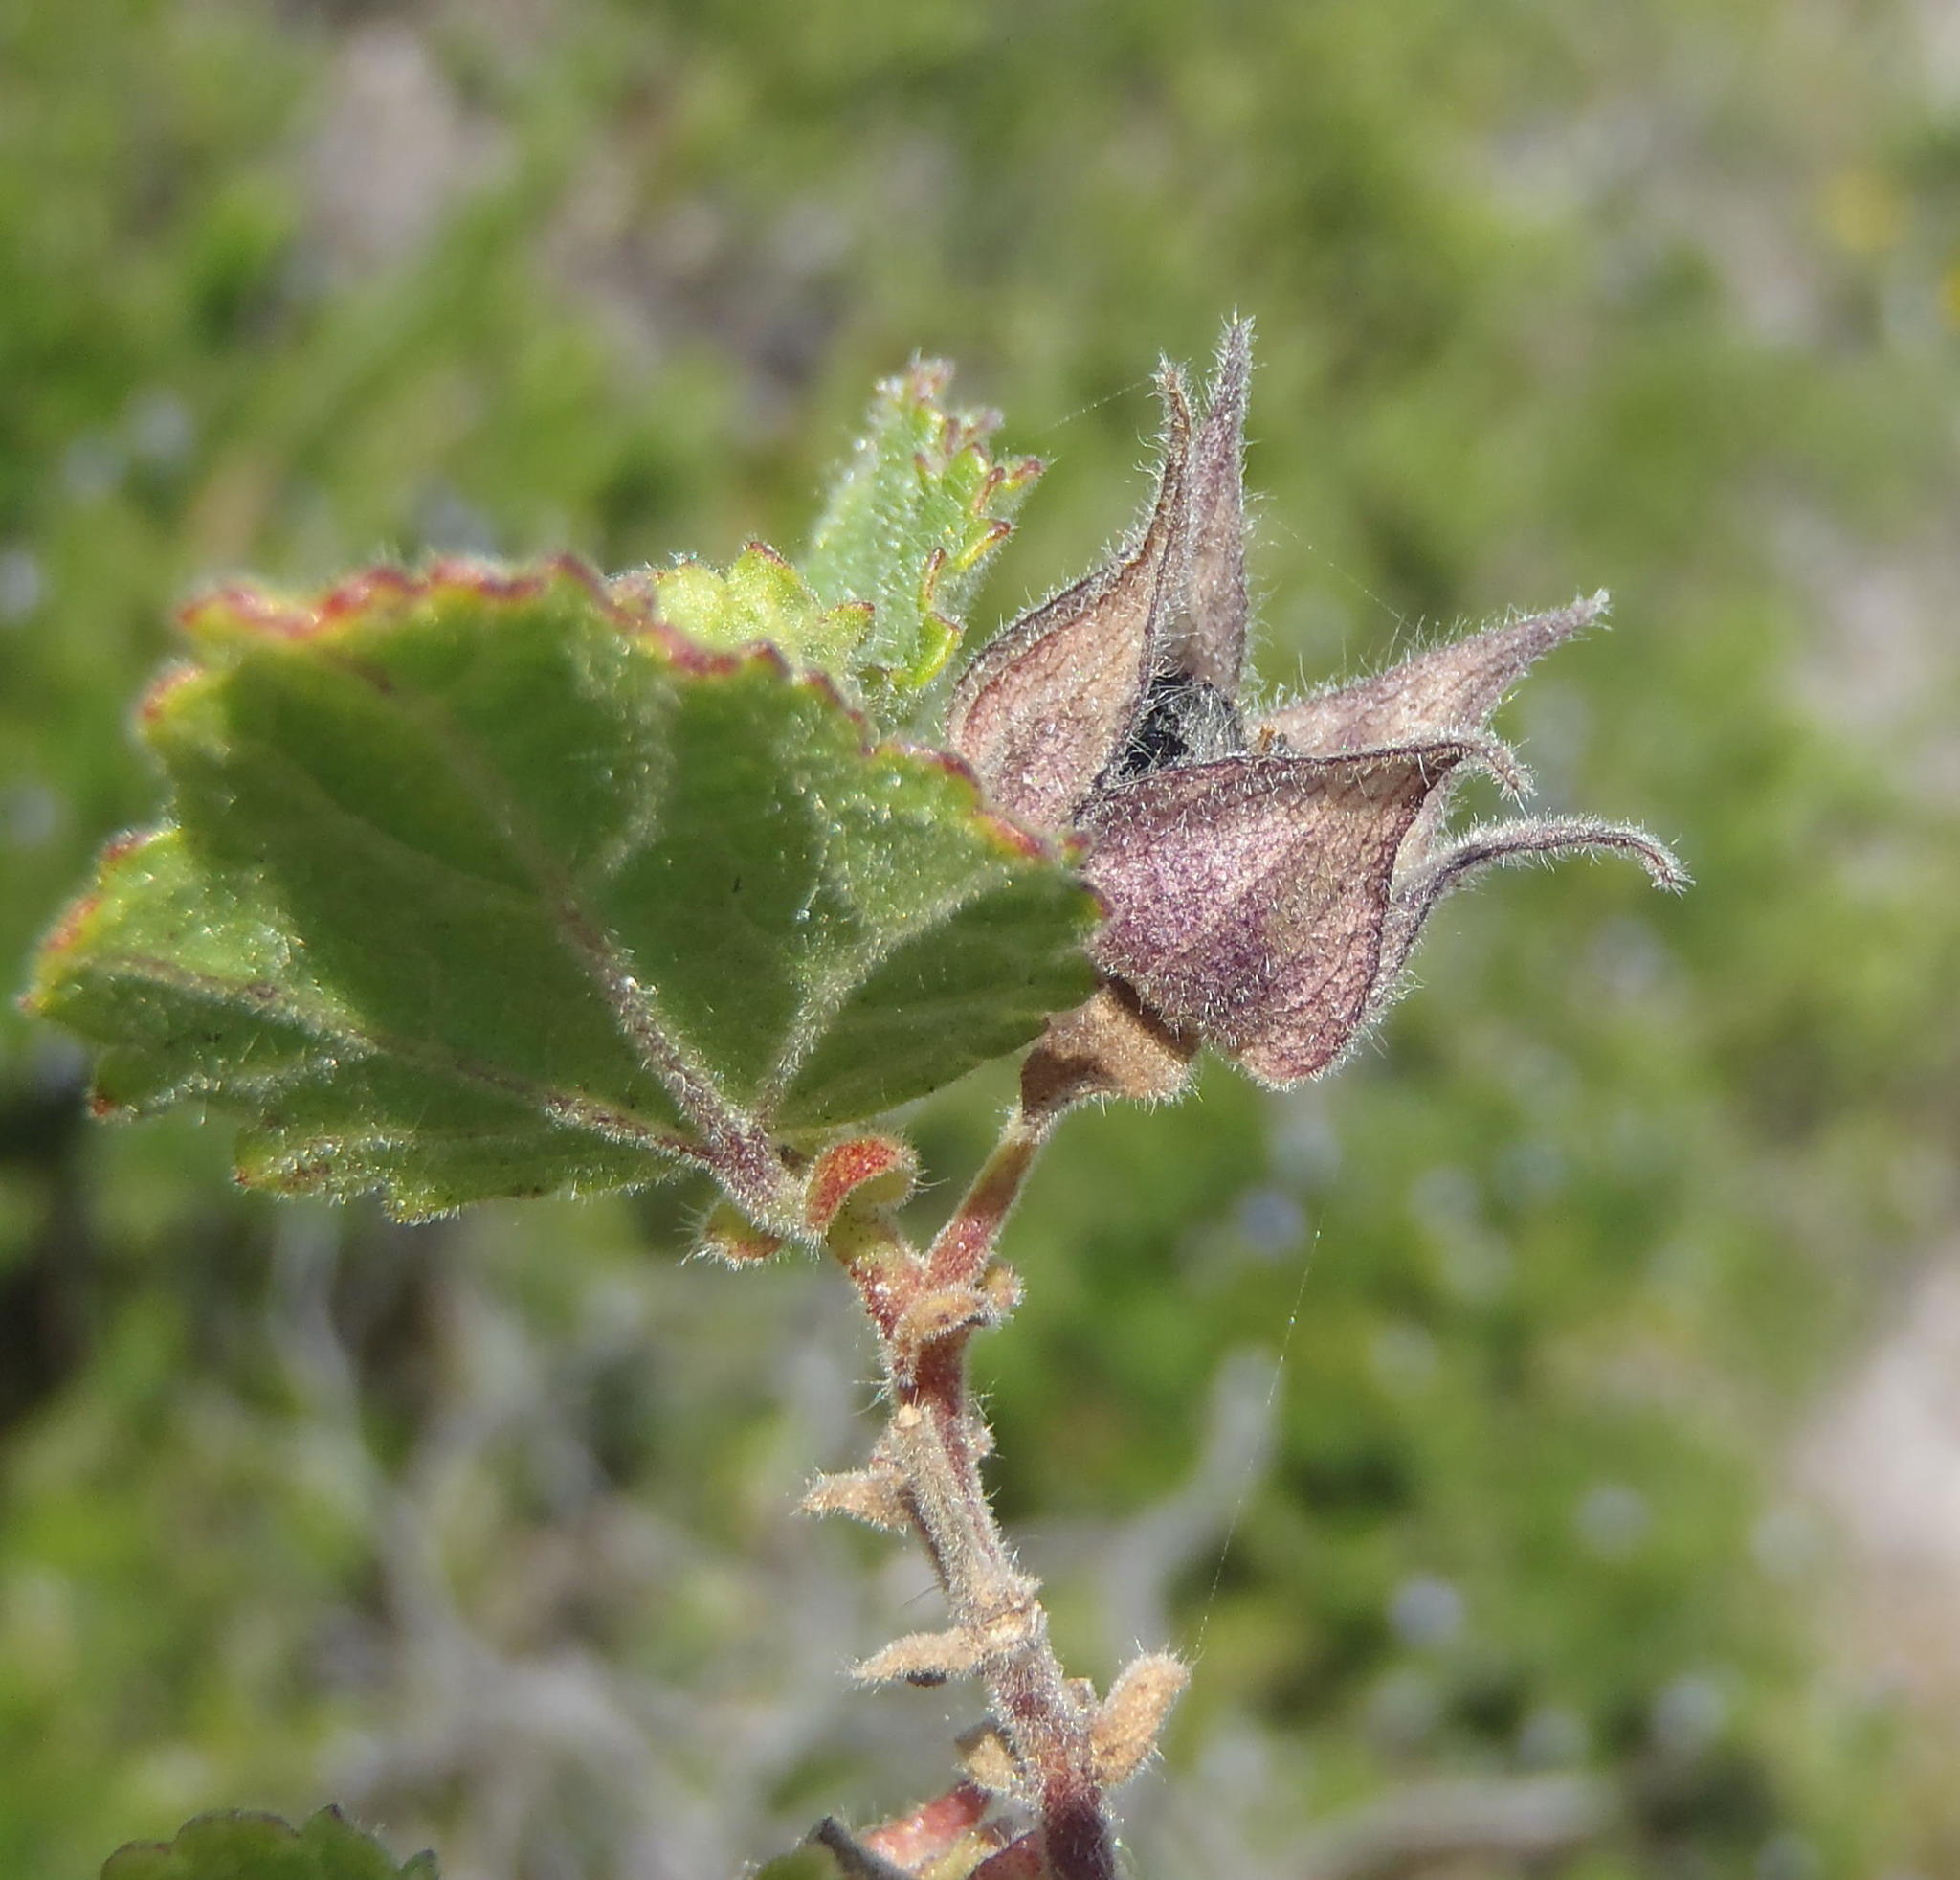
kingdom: Plantae
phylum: Tracheophyta
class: Magnoliopsida
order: Malvales
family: Malvaceae
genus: Anisodontea
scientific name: Anisodontea scabrosa
